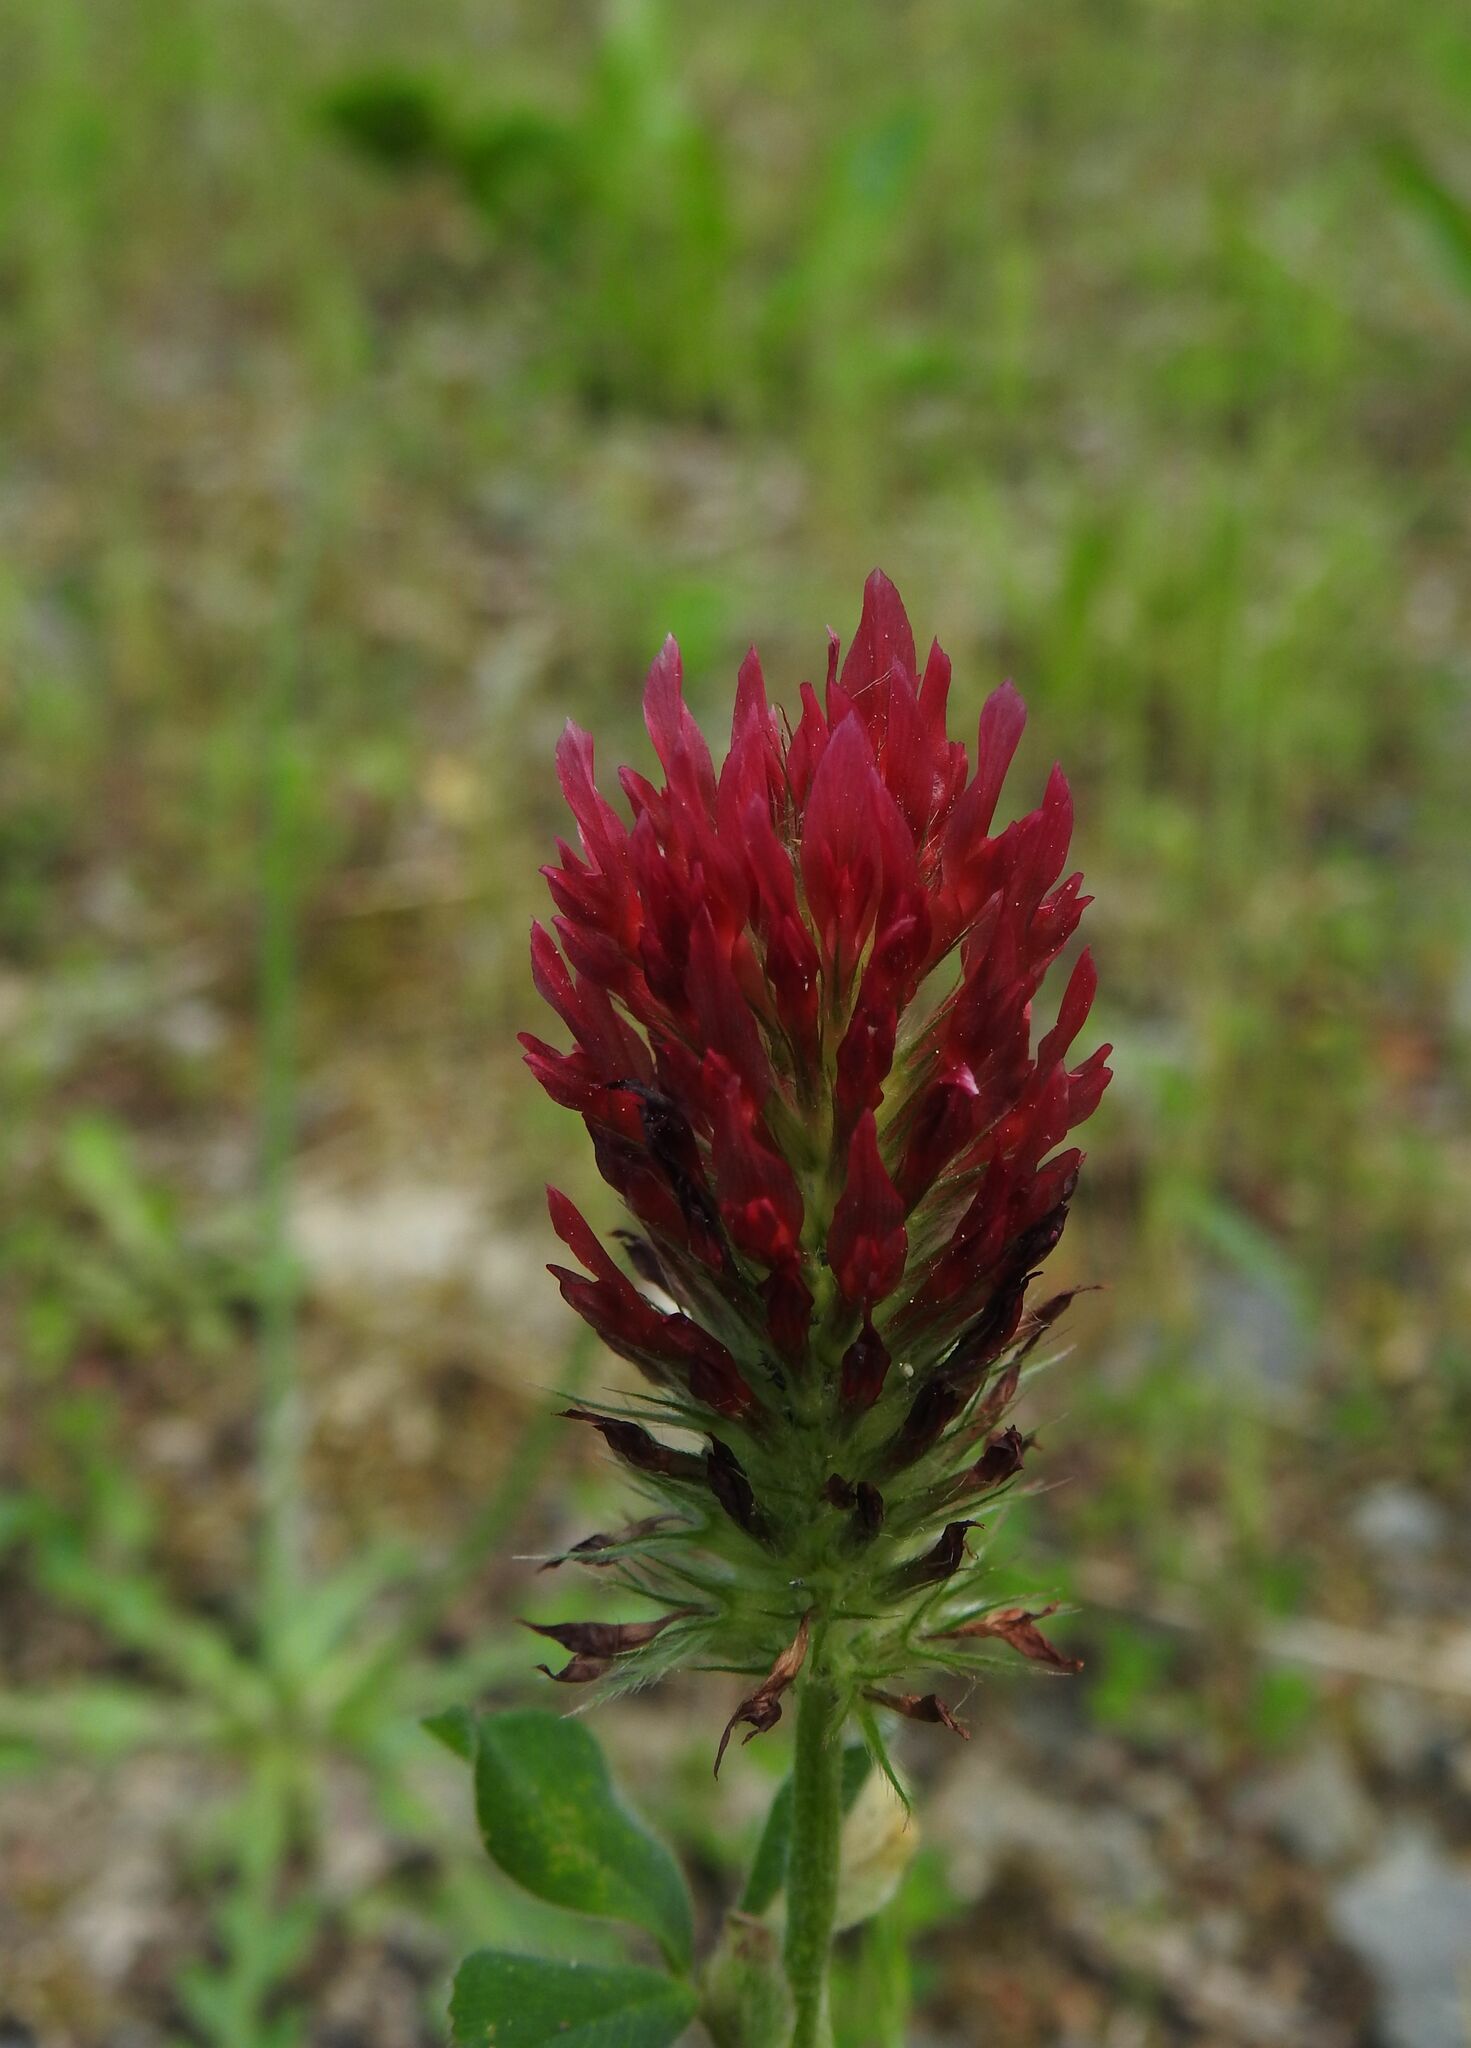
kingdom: Plantae
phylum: Tracheophyta
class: Magnoliopsida
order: Fabales
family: Fabaceae
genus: Trifolium
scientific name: Trifolium incarnatum
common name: Crimson clover
